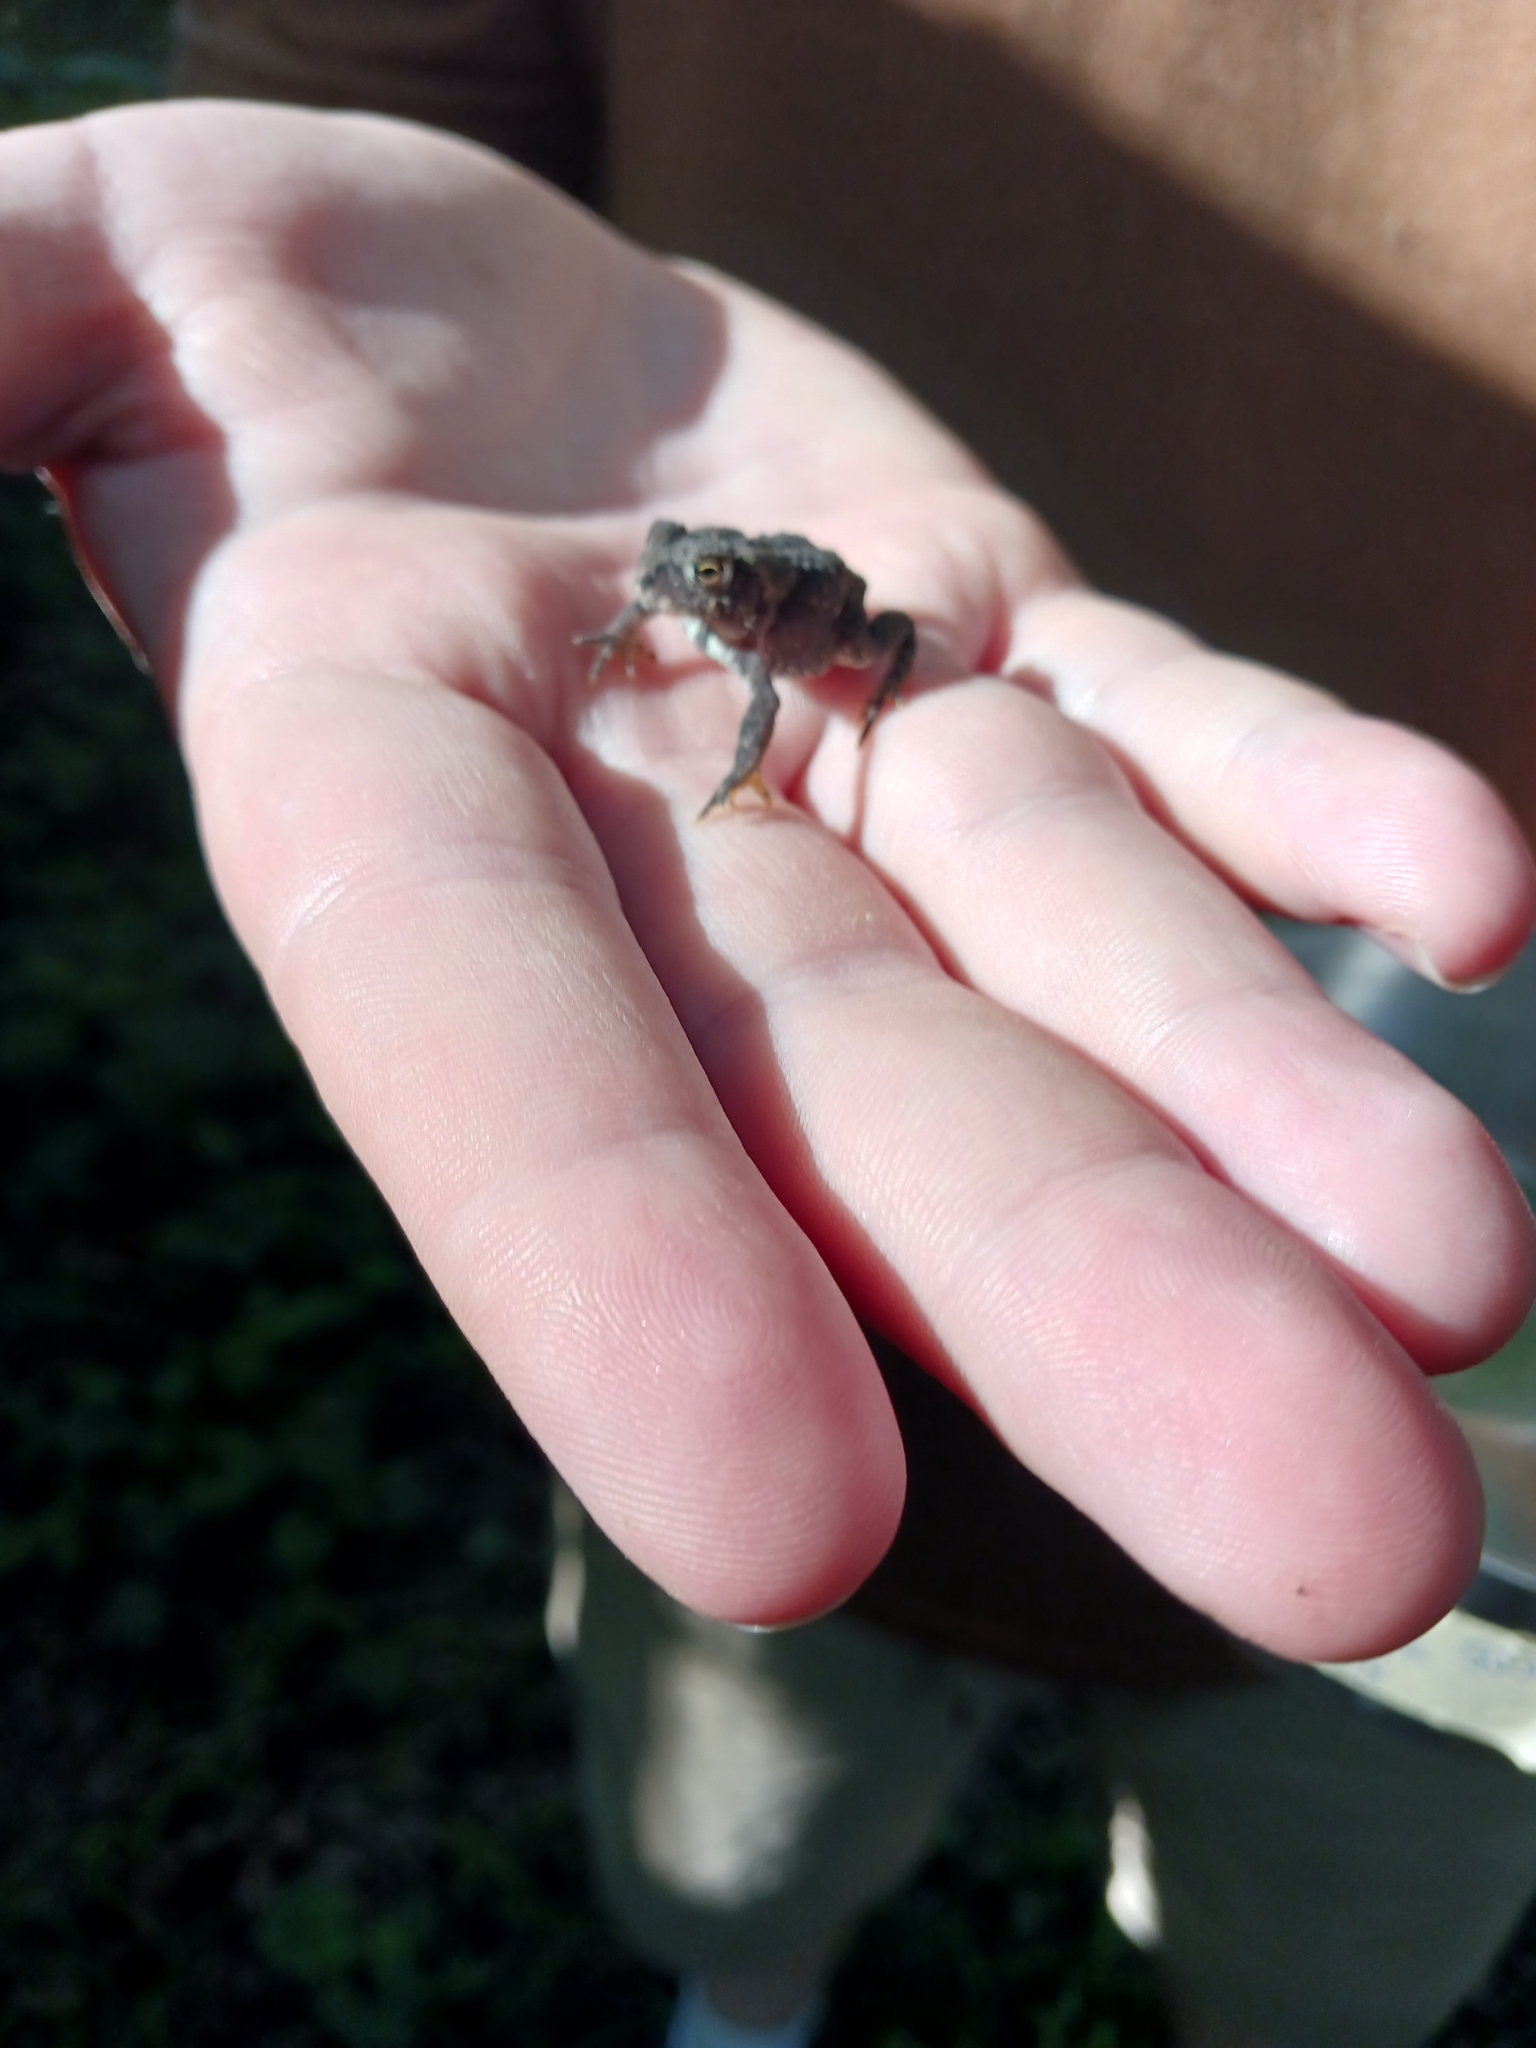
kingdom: Animalia
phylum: Chordata
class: Amphibia
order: Anura
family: Bufonidae
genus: Anaxyrus
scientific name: Anaxyrus americanus
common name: American toad
